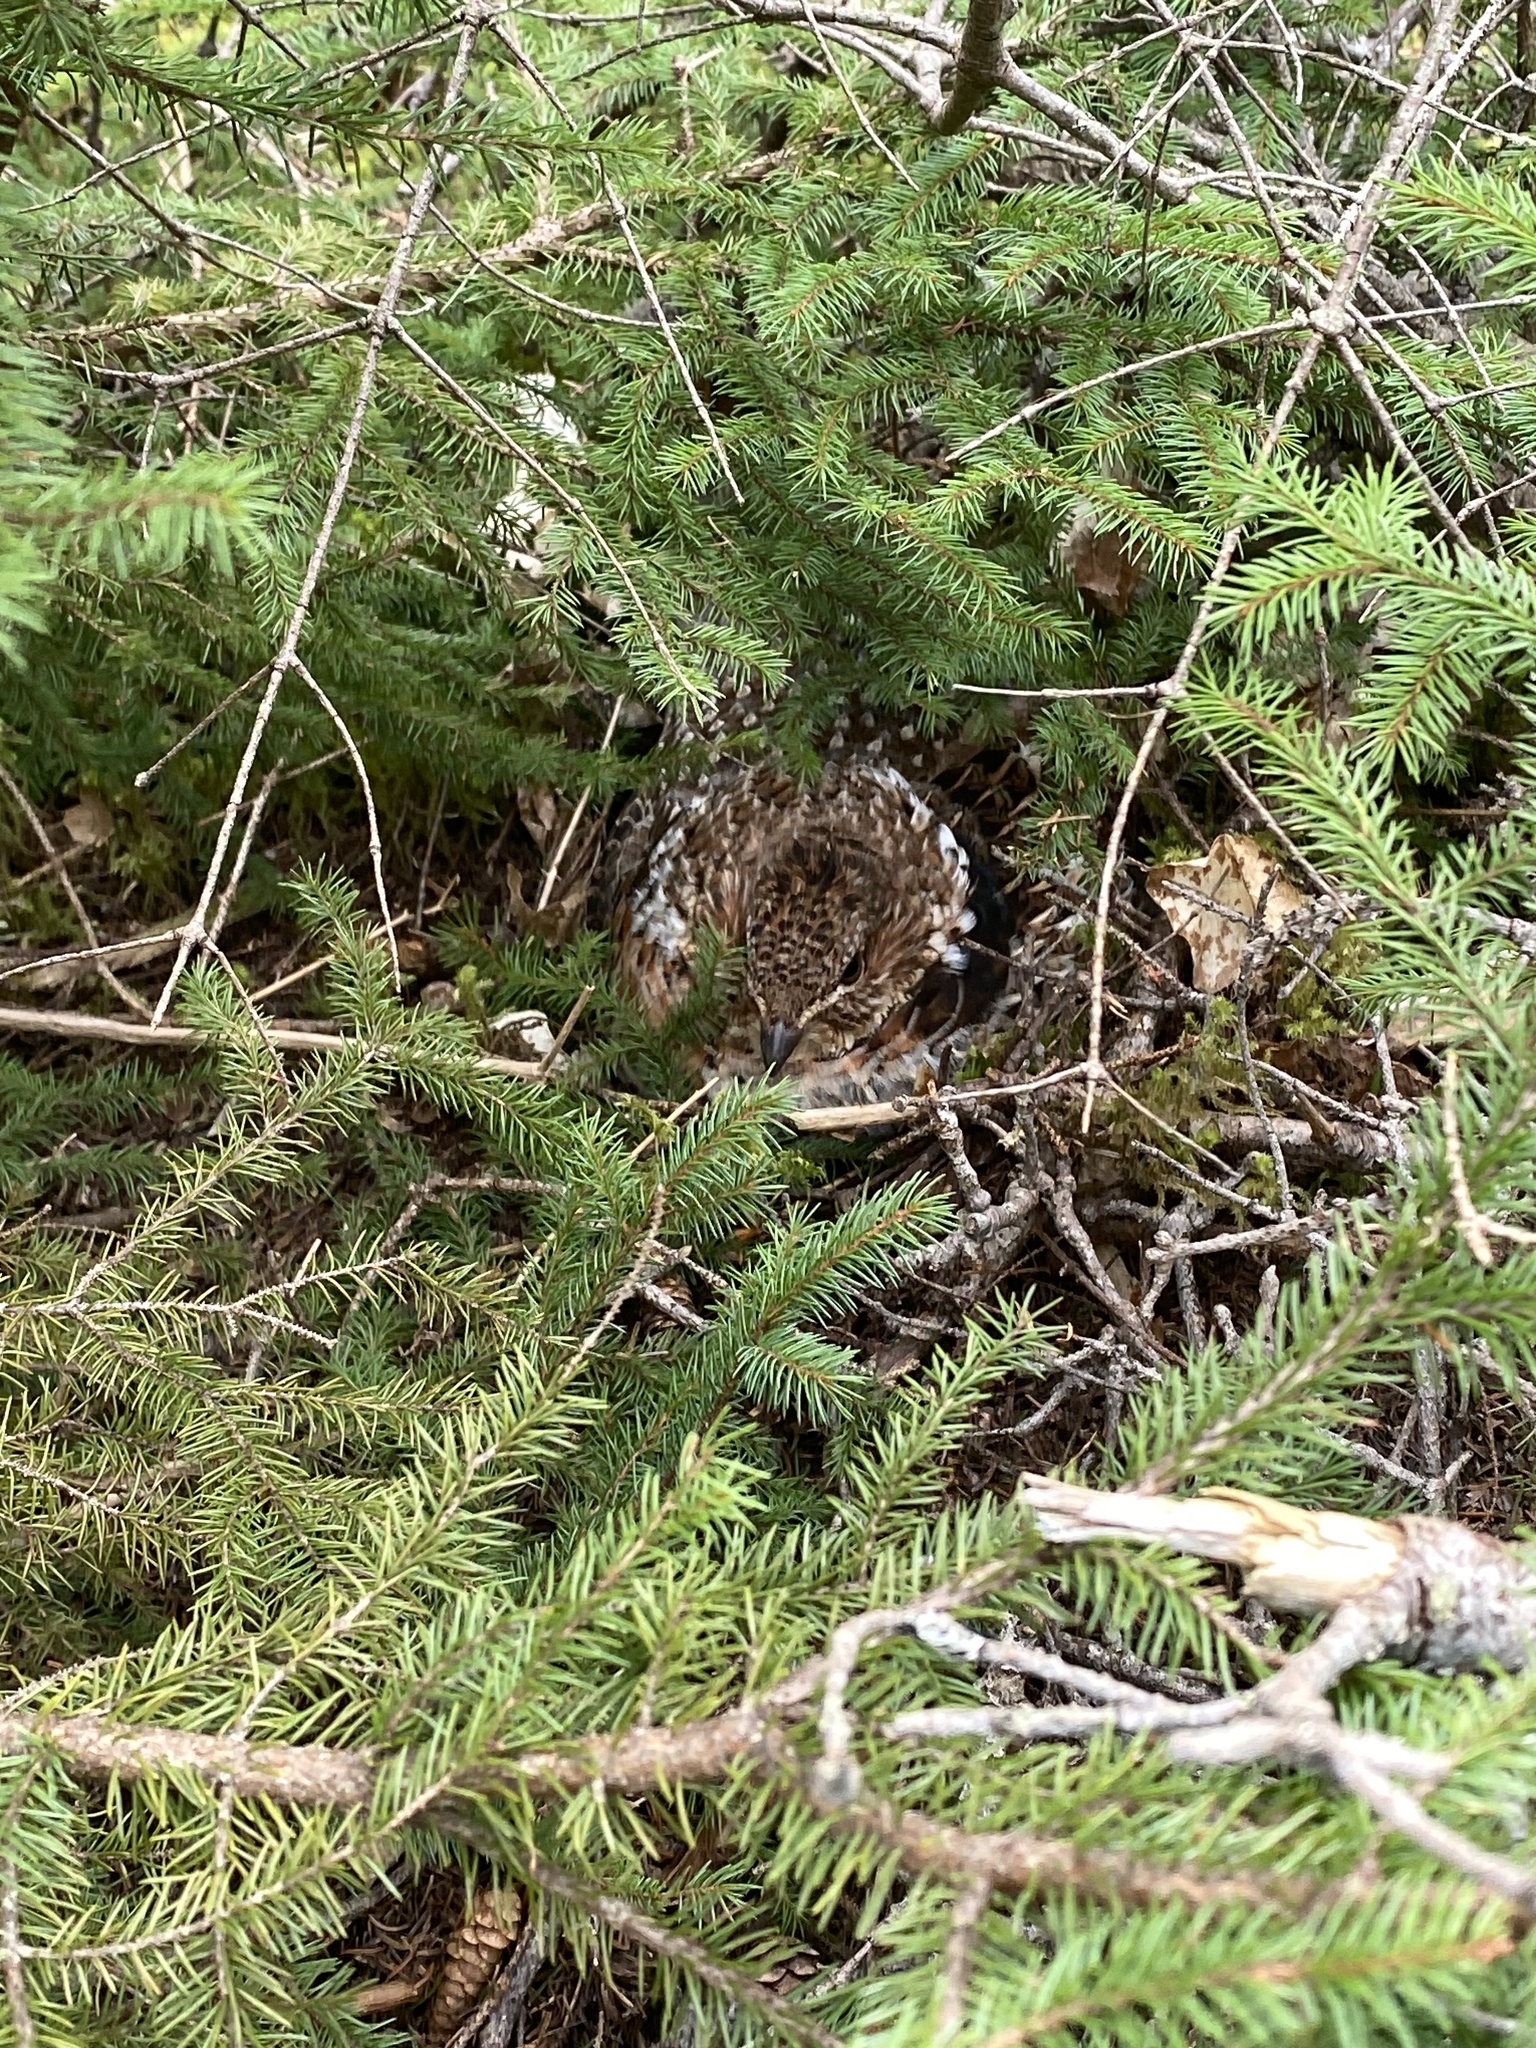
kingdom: Animalia
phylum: Chordata
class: Aves
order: Galliformes
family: Phasianidae
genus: Bonasa
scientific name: Bonasa umbellus
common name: Ruffed grouse
